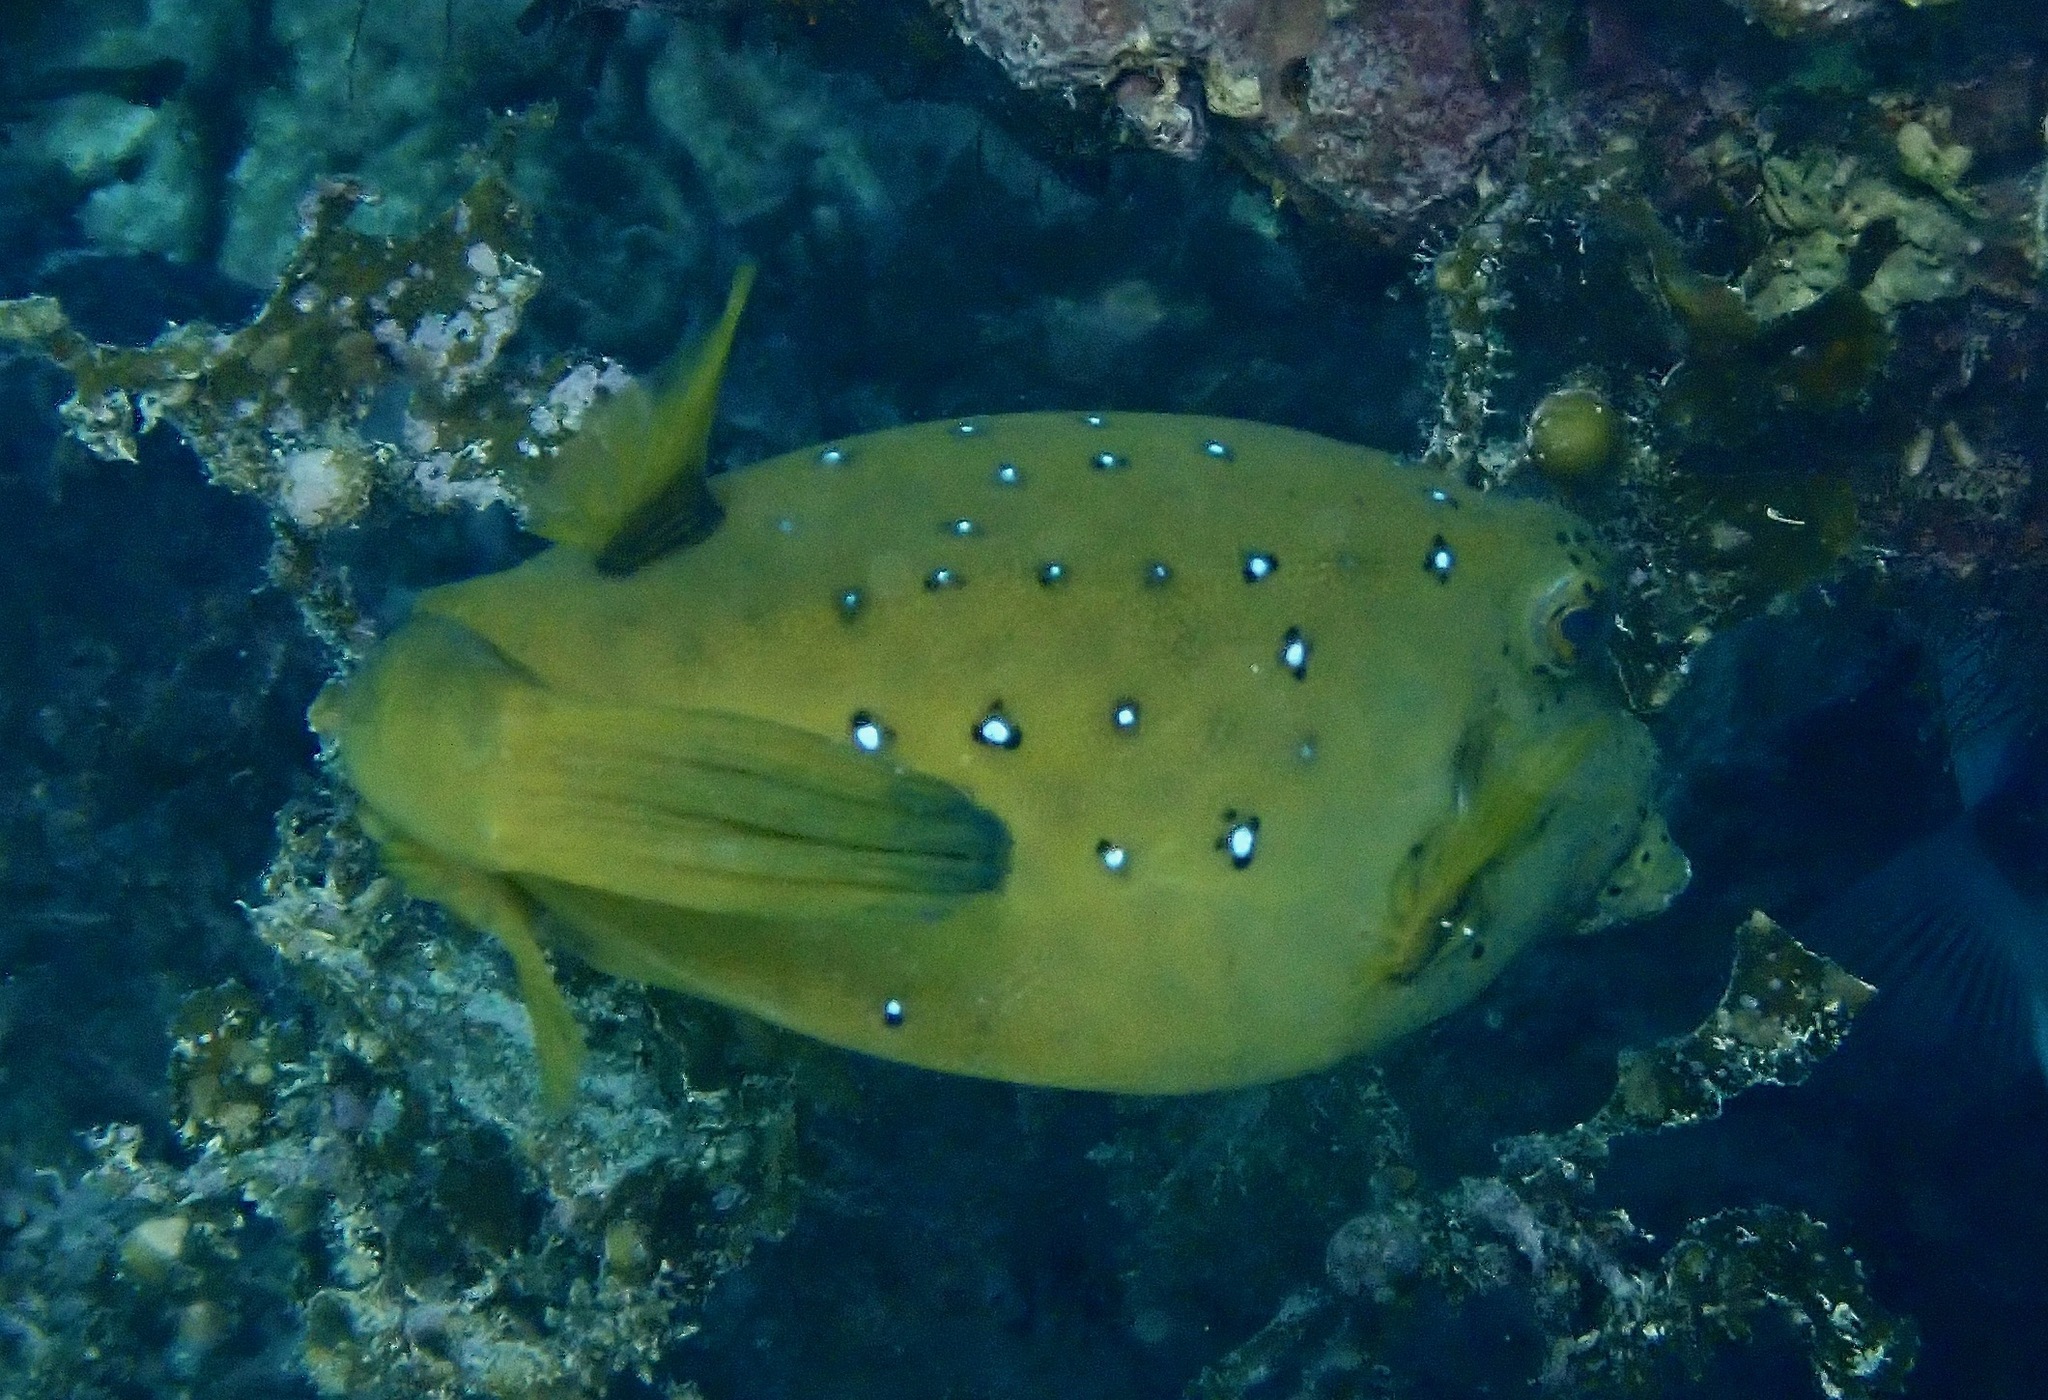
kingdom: Animalia
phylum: Chordata
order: Tetraodontiformes
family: Ostraciidae
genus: Ostracion
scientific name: Ostracion cubicus
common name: Cube trunkfish
